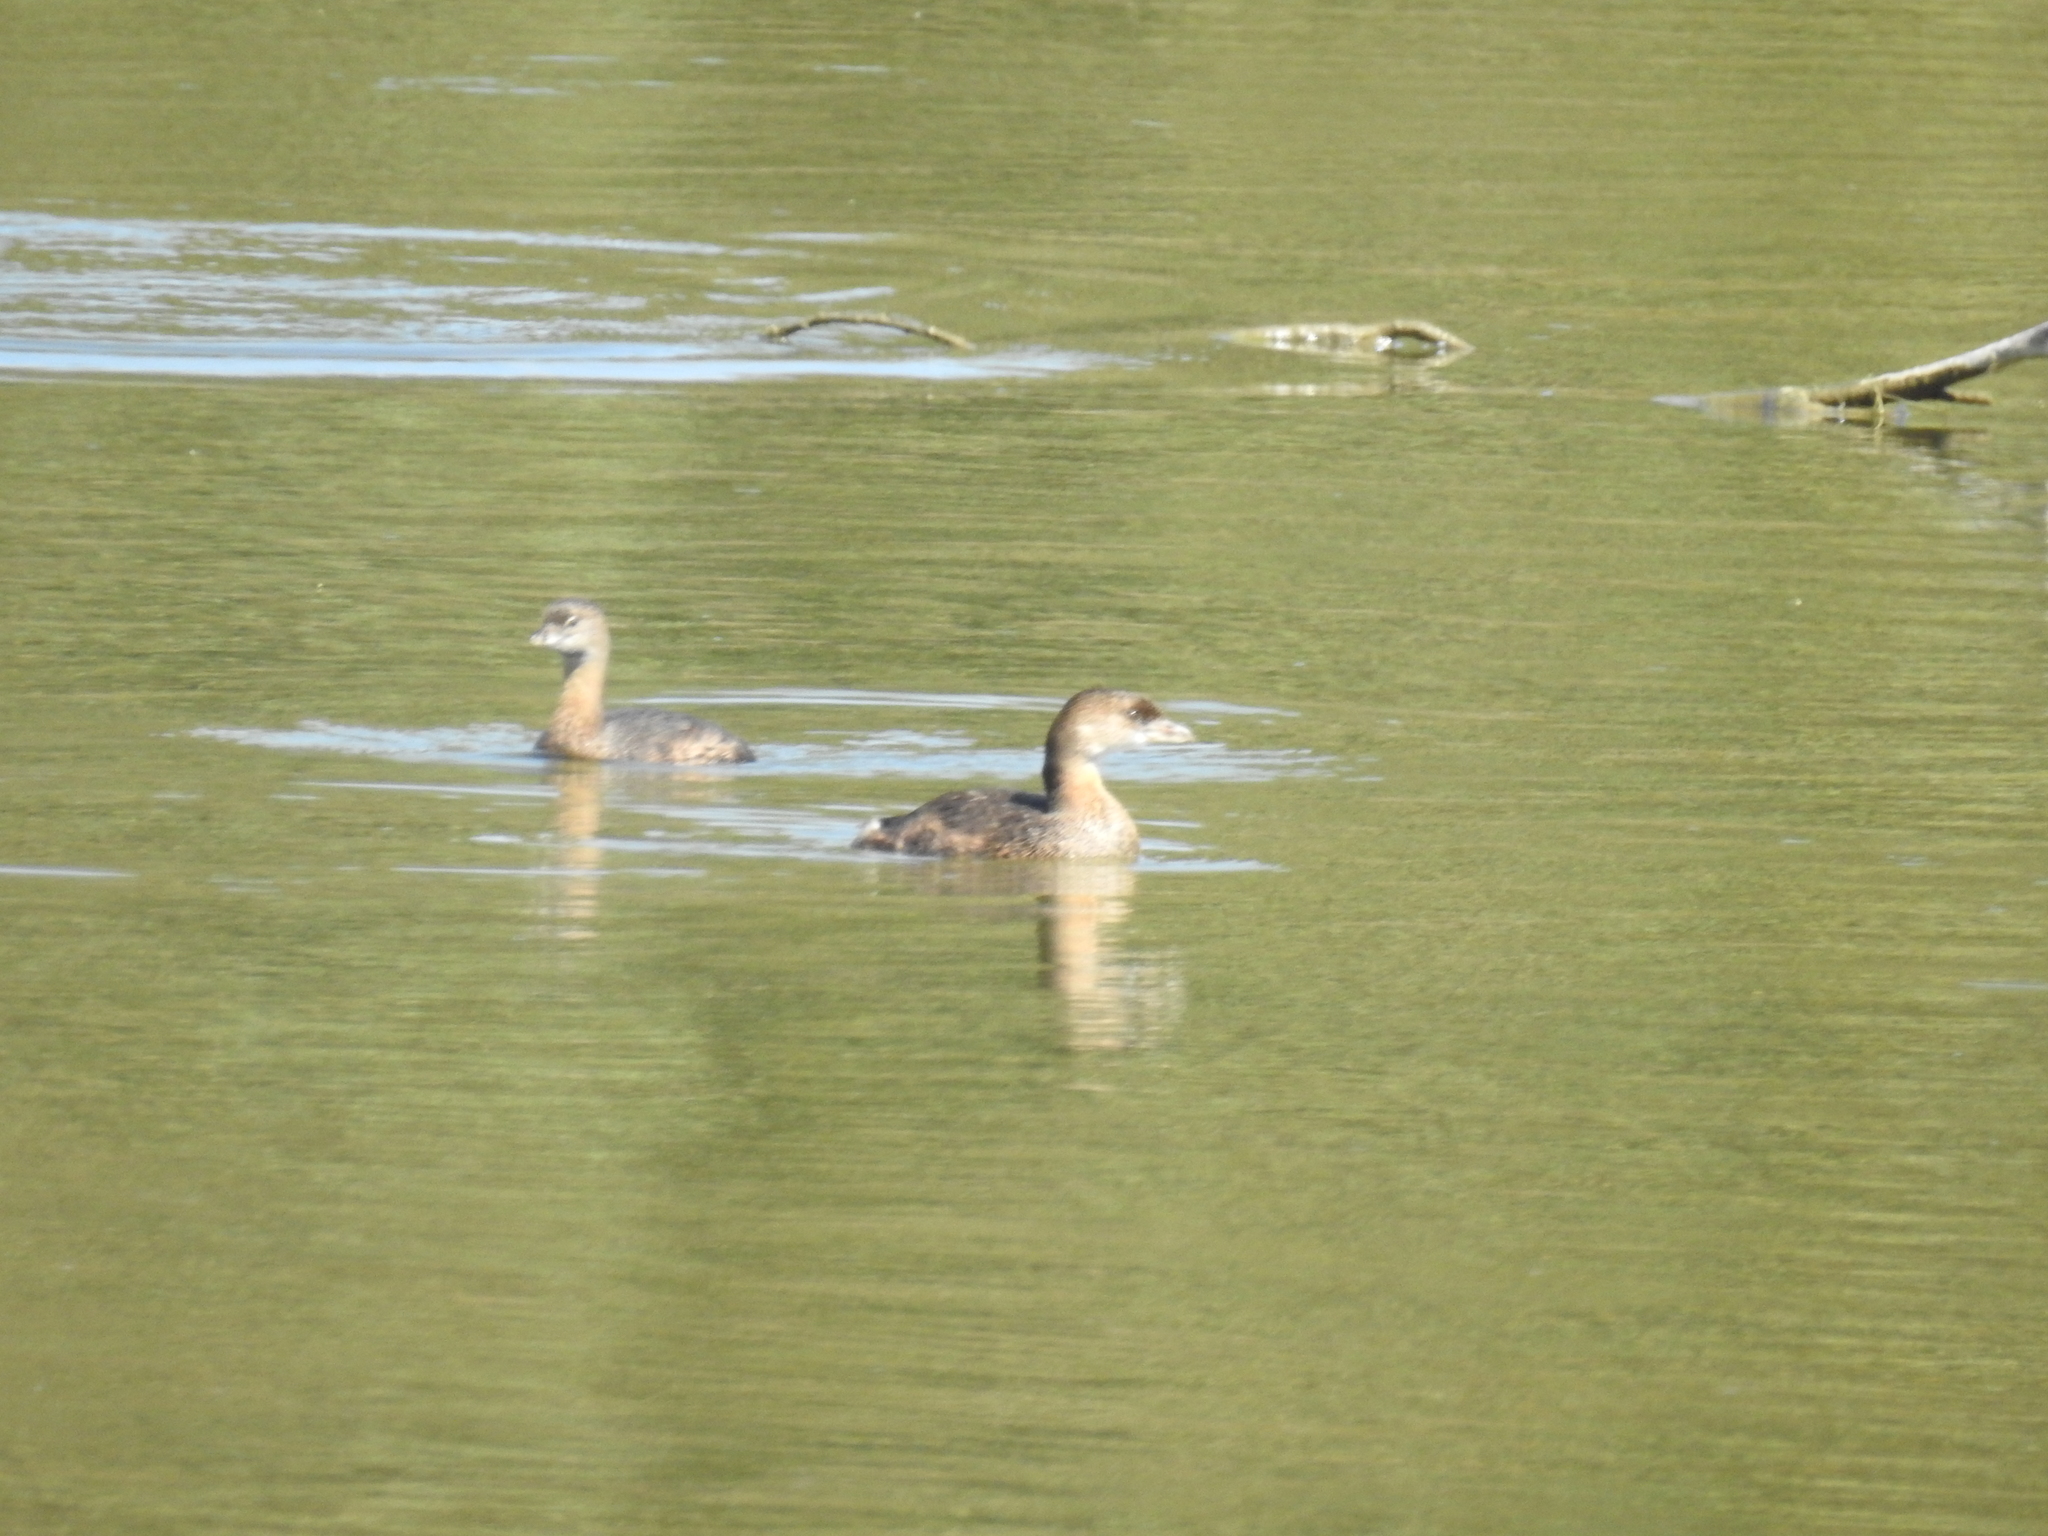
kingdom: Animalia
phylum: Chordata
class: Aves
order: Podicipediformes
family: Podicipedidae
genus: Podilymbus
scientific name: Podilymbus podiceps
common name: Pied-billed grebe
